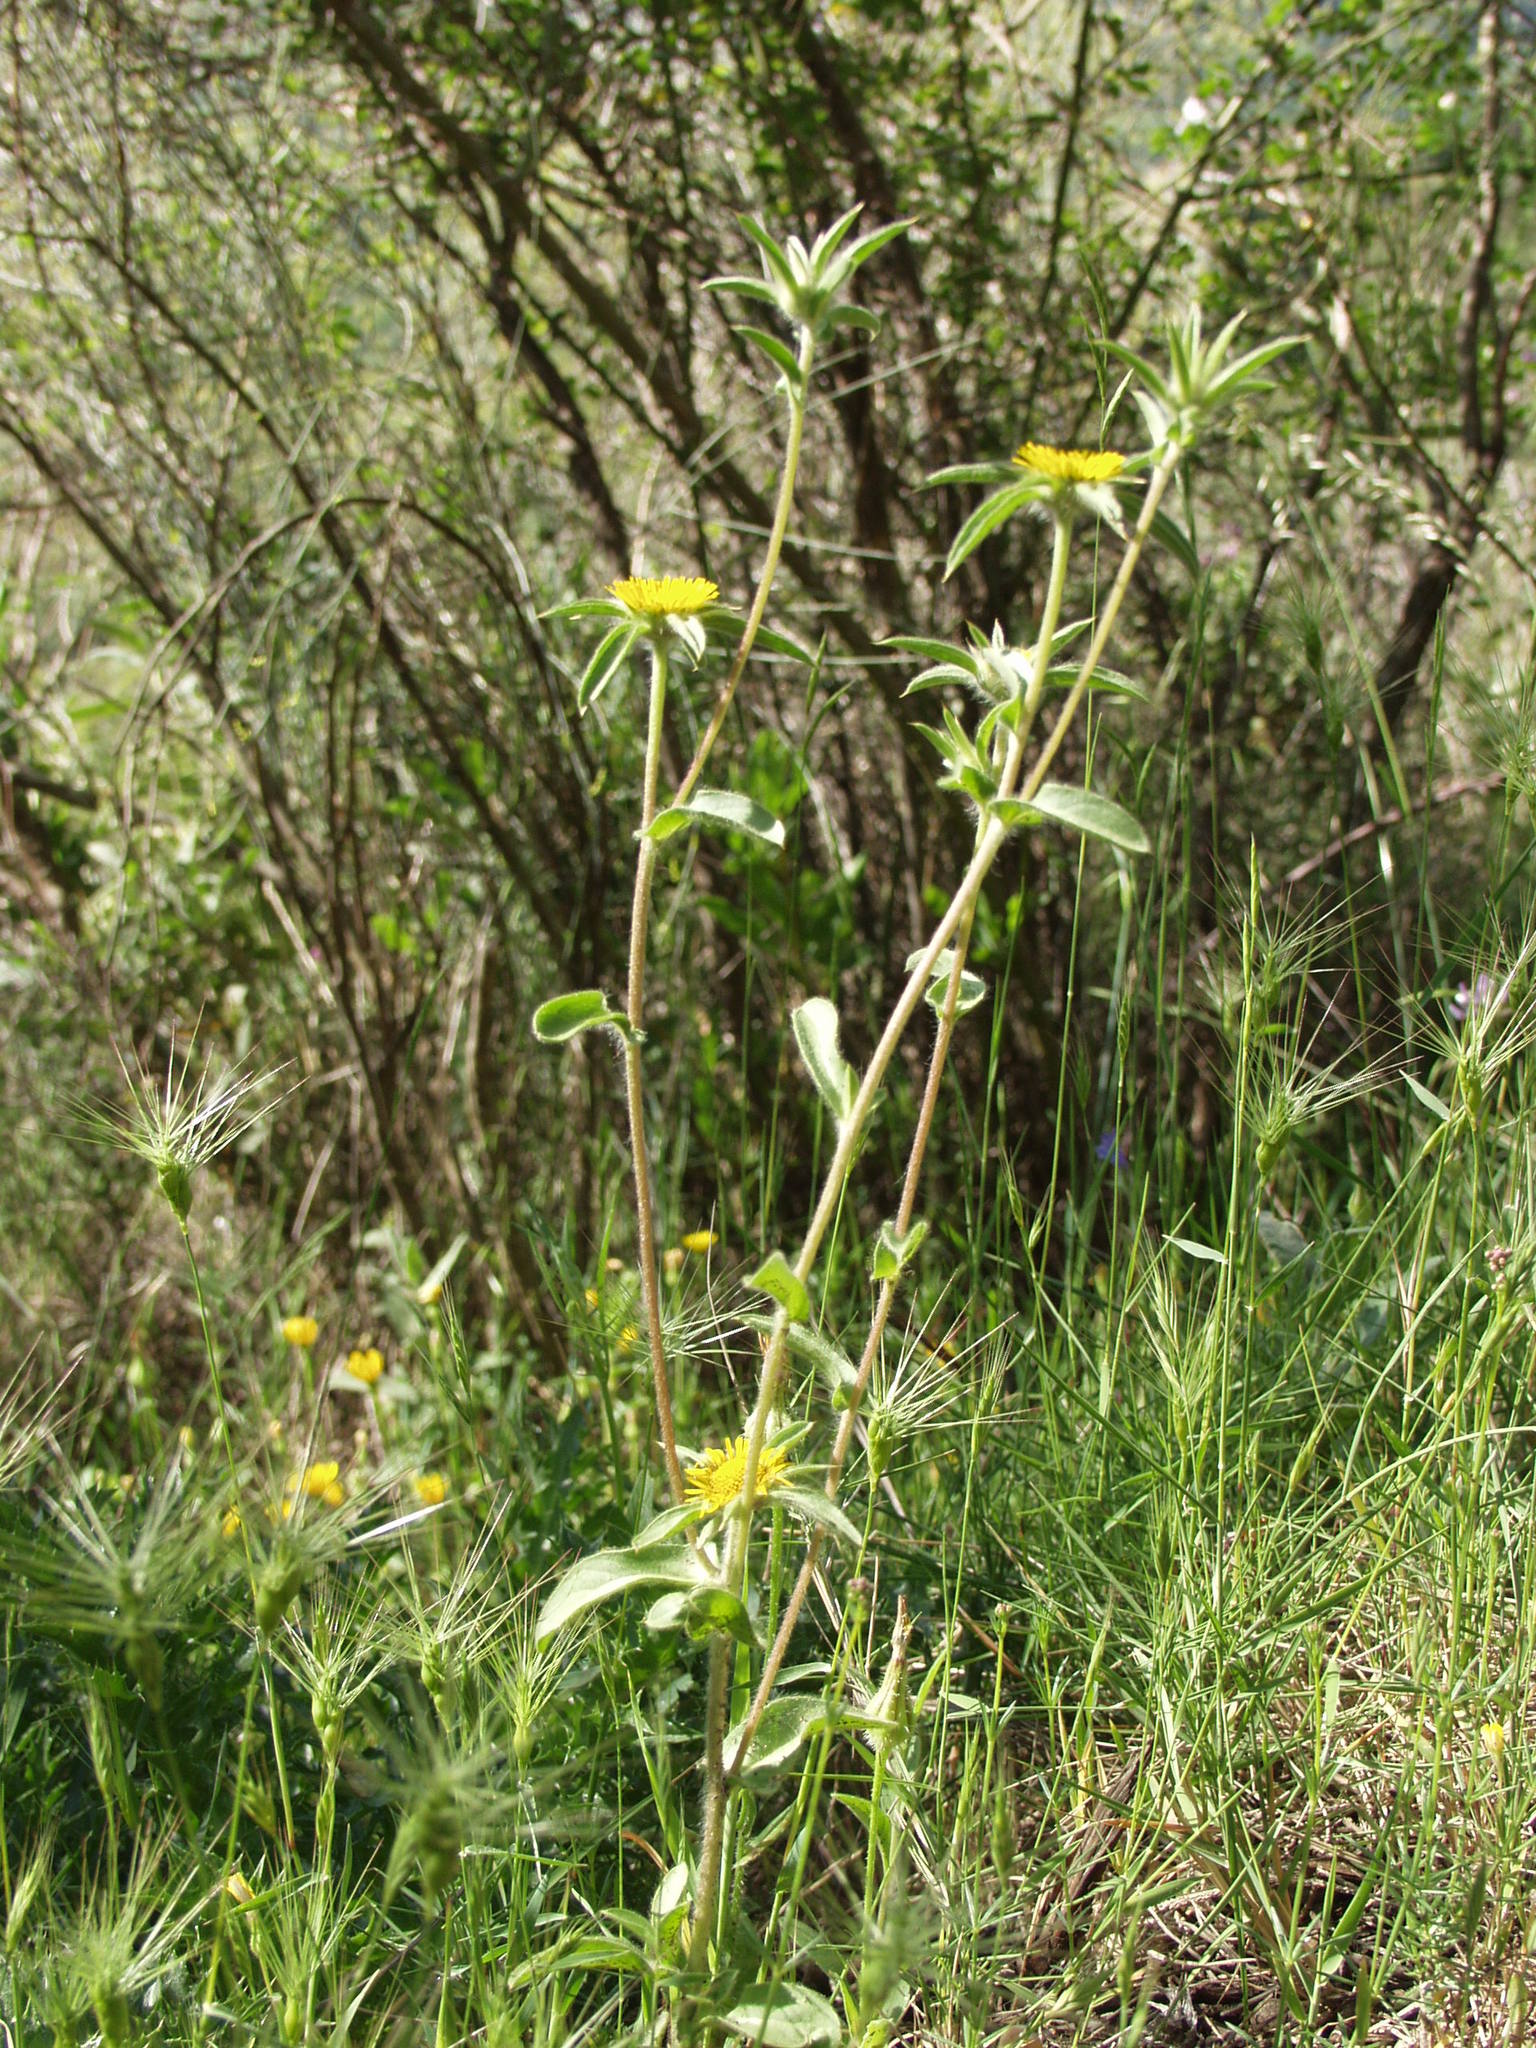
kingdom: Plantae
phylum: Tracheophyta
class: Magnoliopsida
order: Asterales
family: Asteraceae
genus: Pallenis
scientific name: Pallenis spinosa
